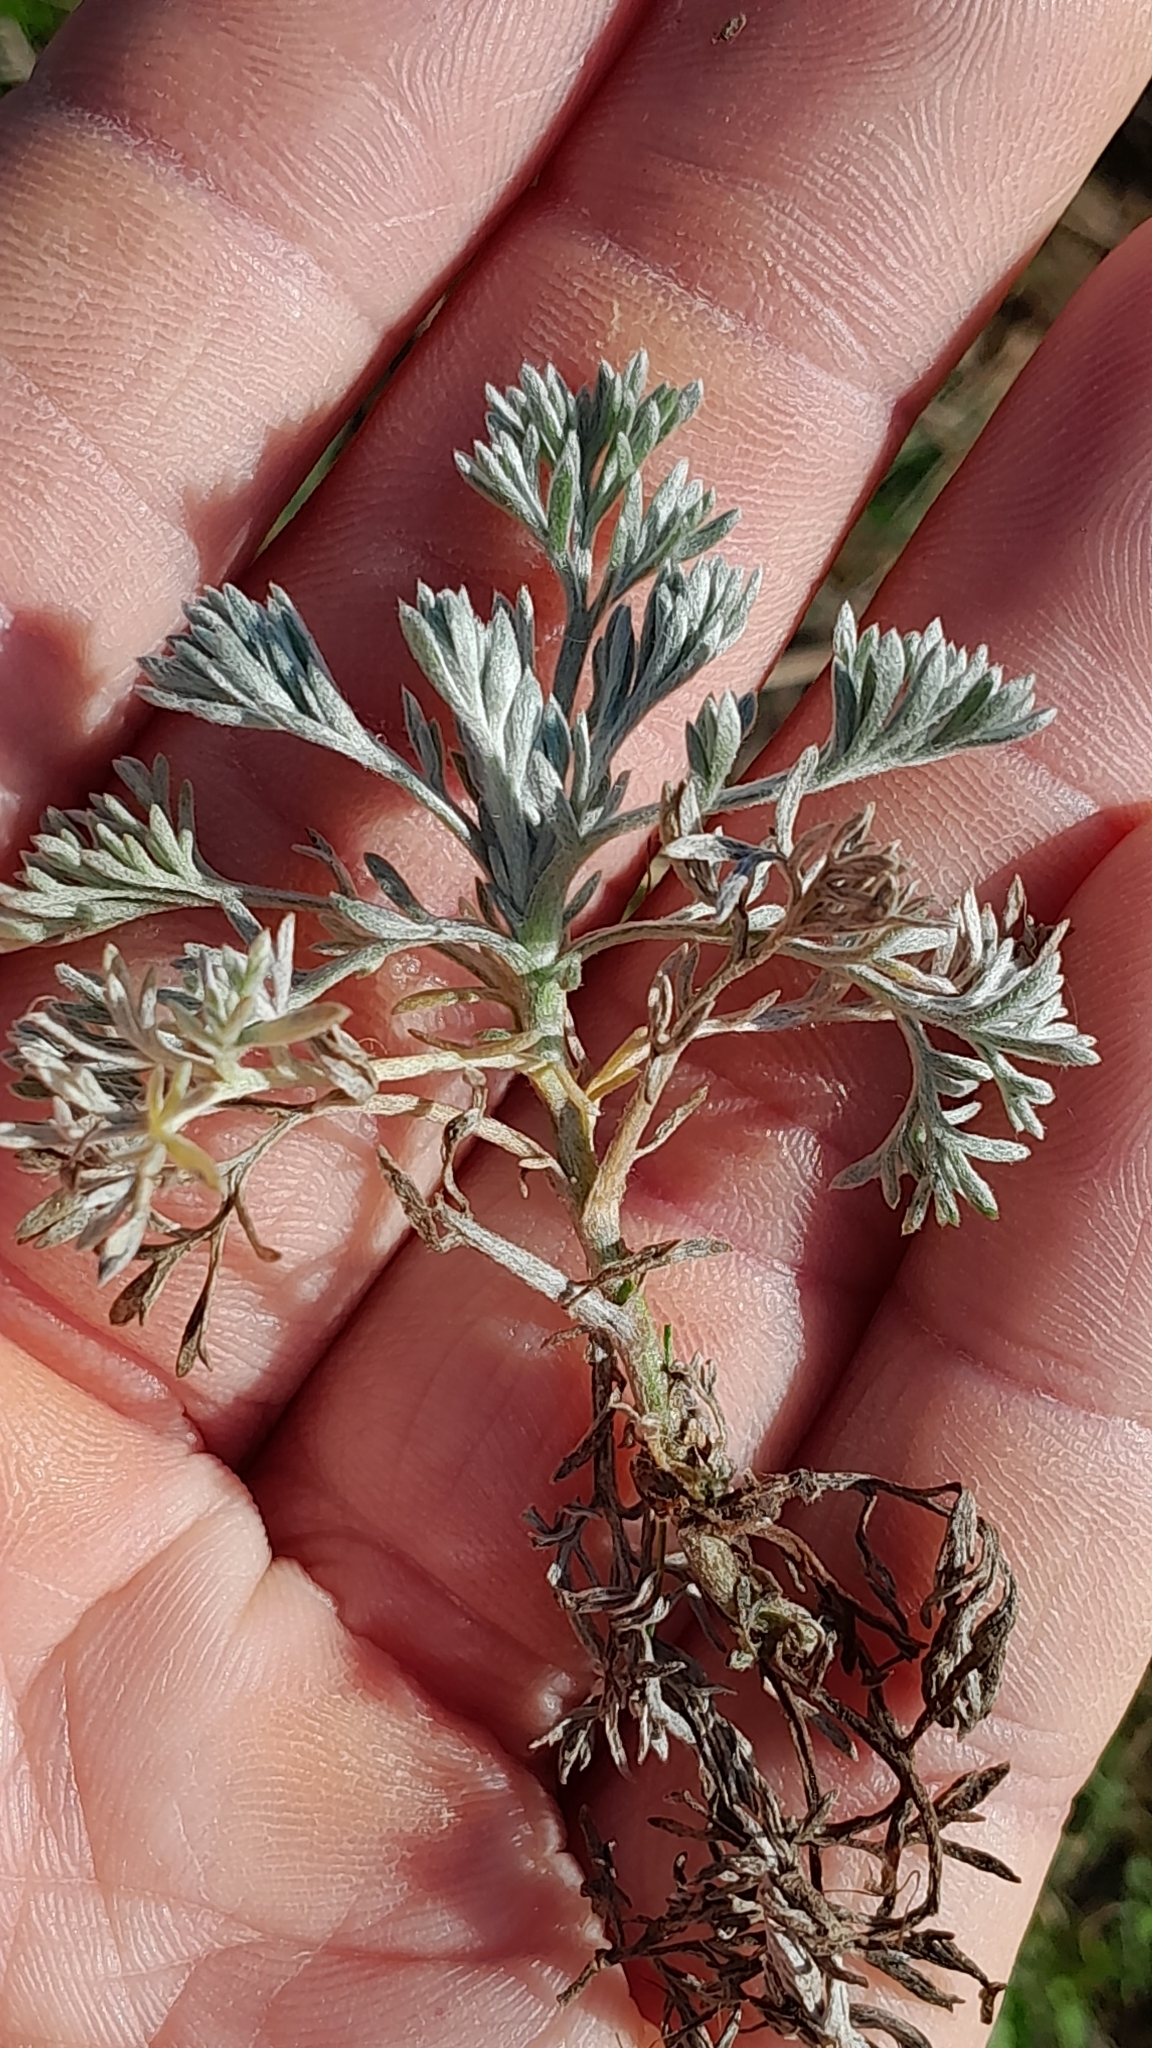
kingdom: Plantae
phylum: Tracheophyta
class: Magnoliopsida
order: Asterales
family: Asteraceae
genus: Artemisia
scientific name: Artemisia austriaca
